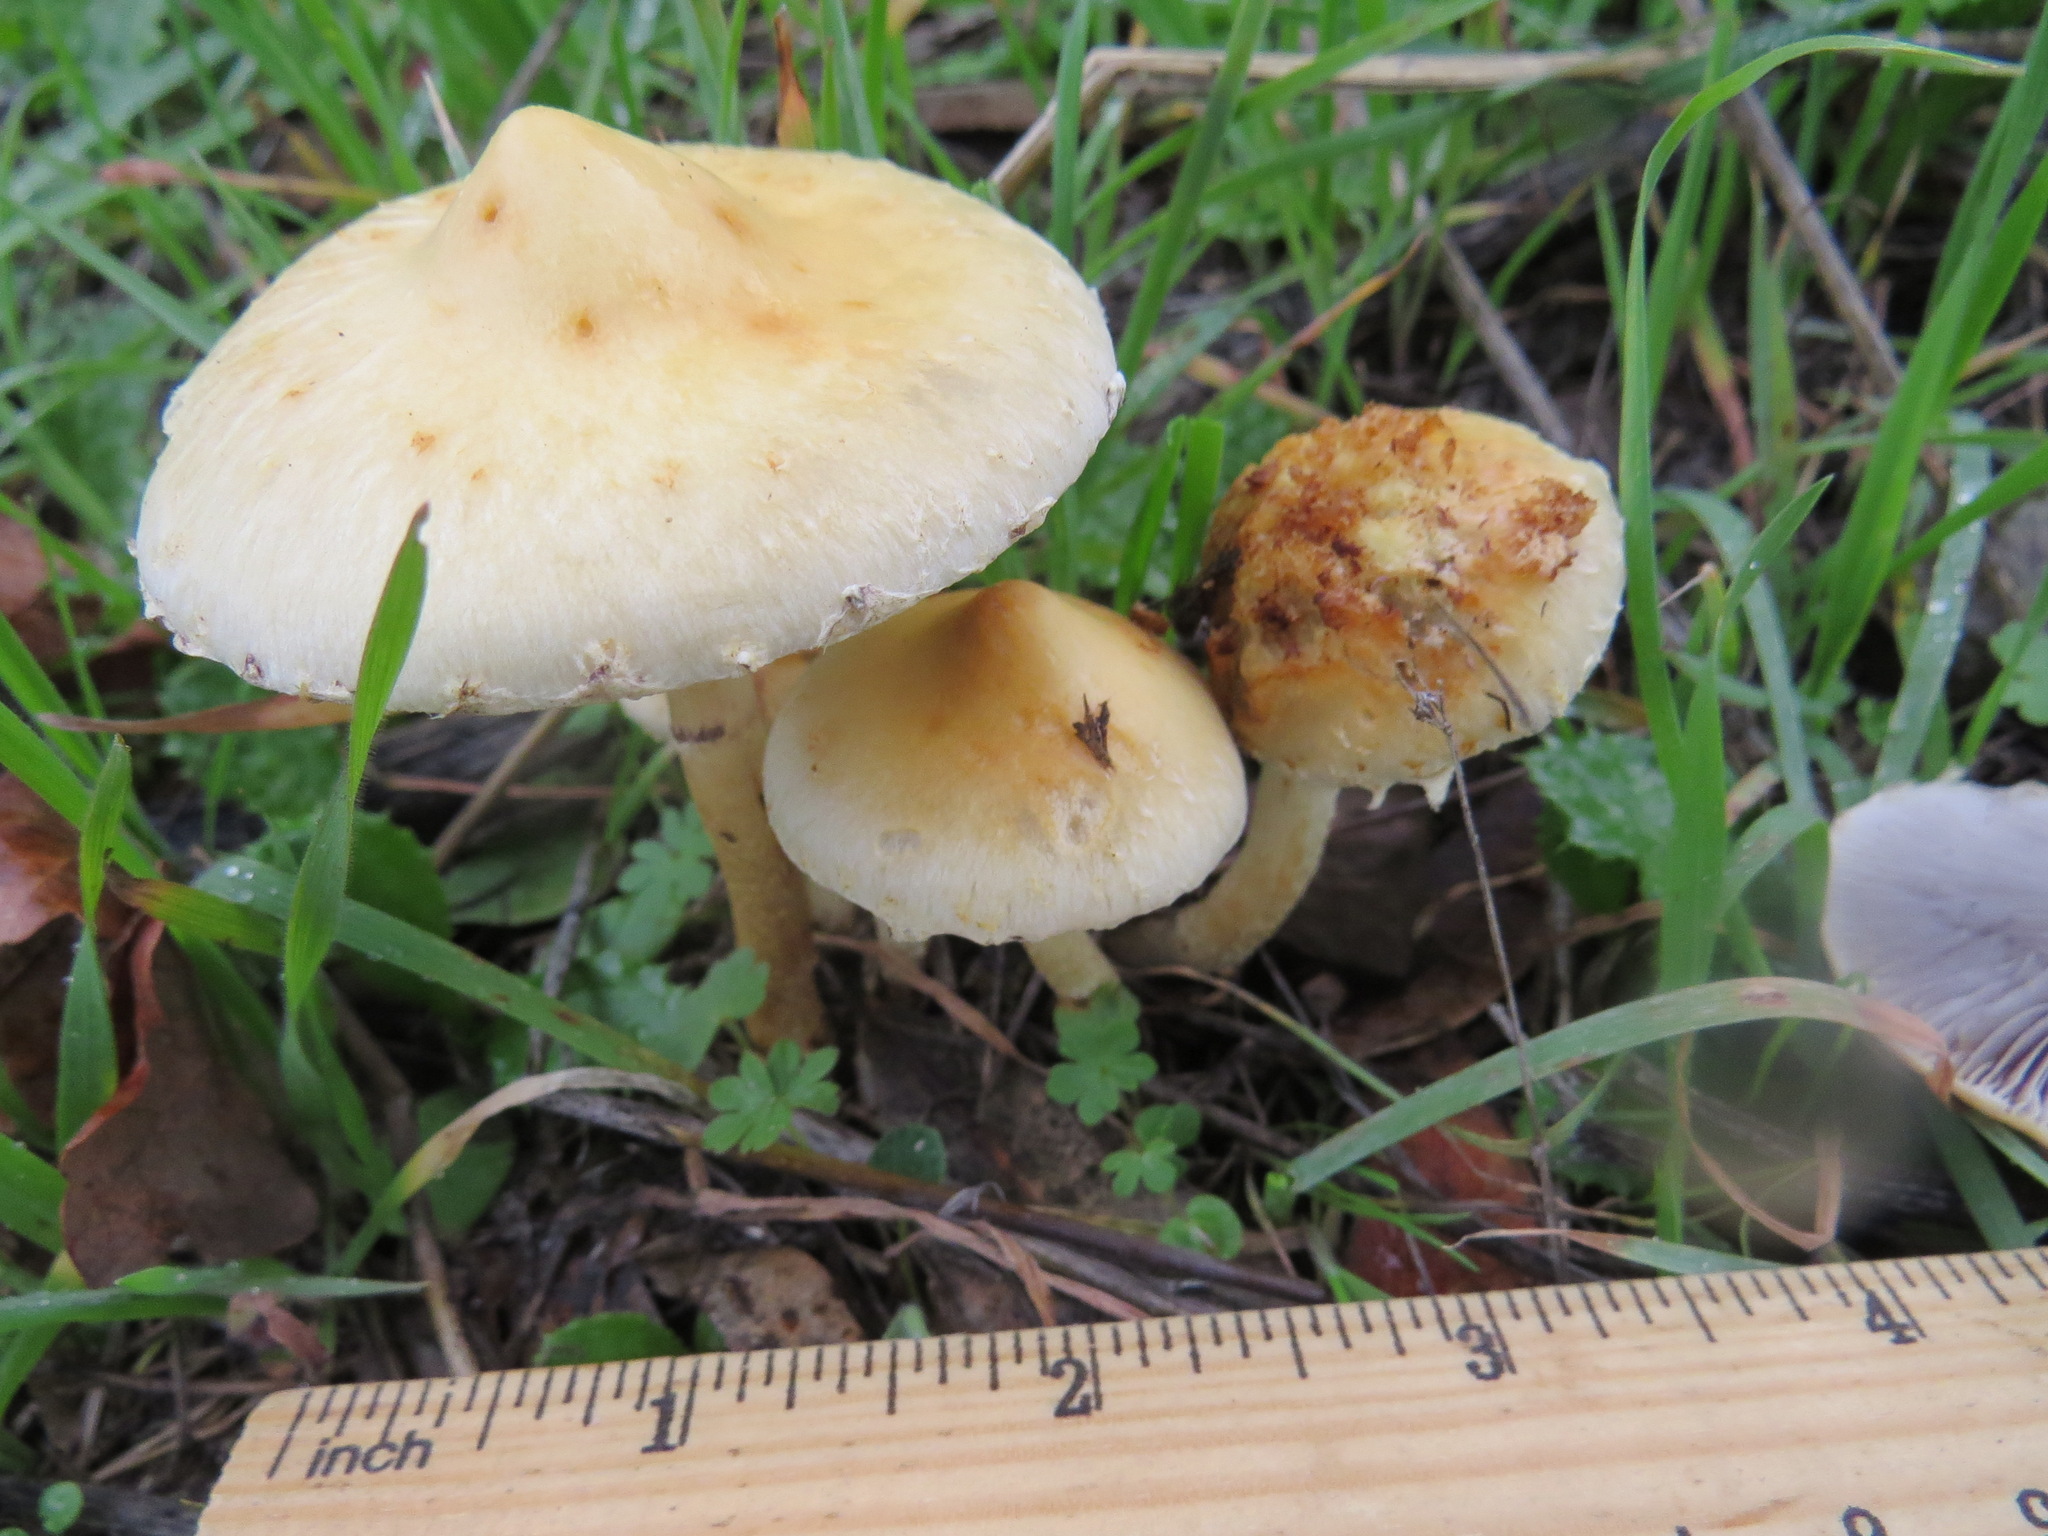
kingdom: Fungi
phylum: Basidiomycota
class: Agaricomycetes
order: Agaricales
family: Strophariaceae
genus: Leratiomyces
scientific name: Leratiomyces percevalii
